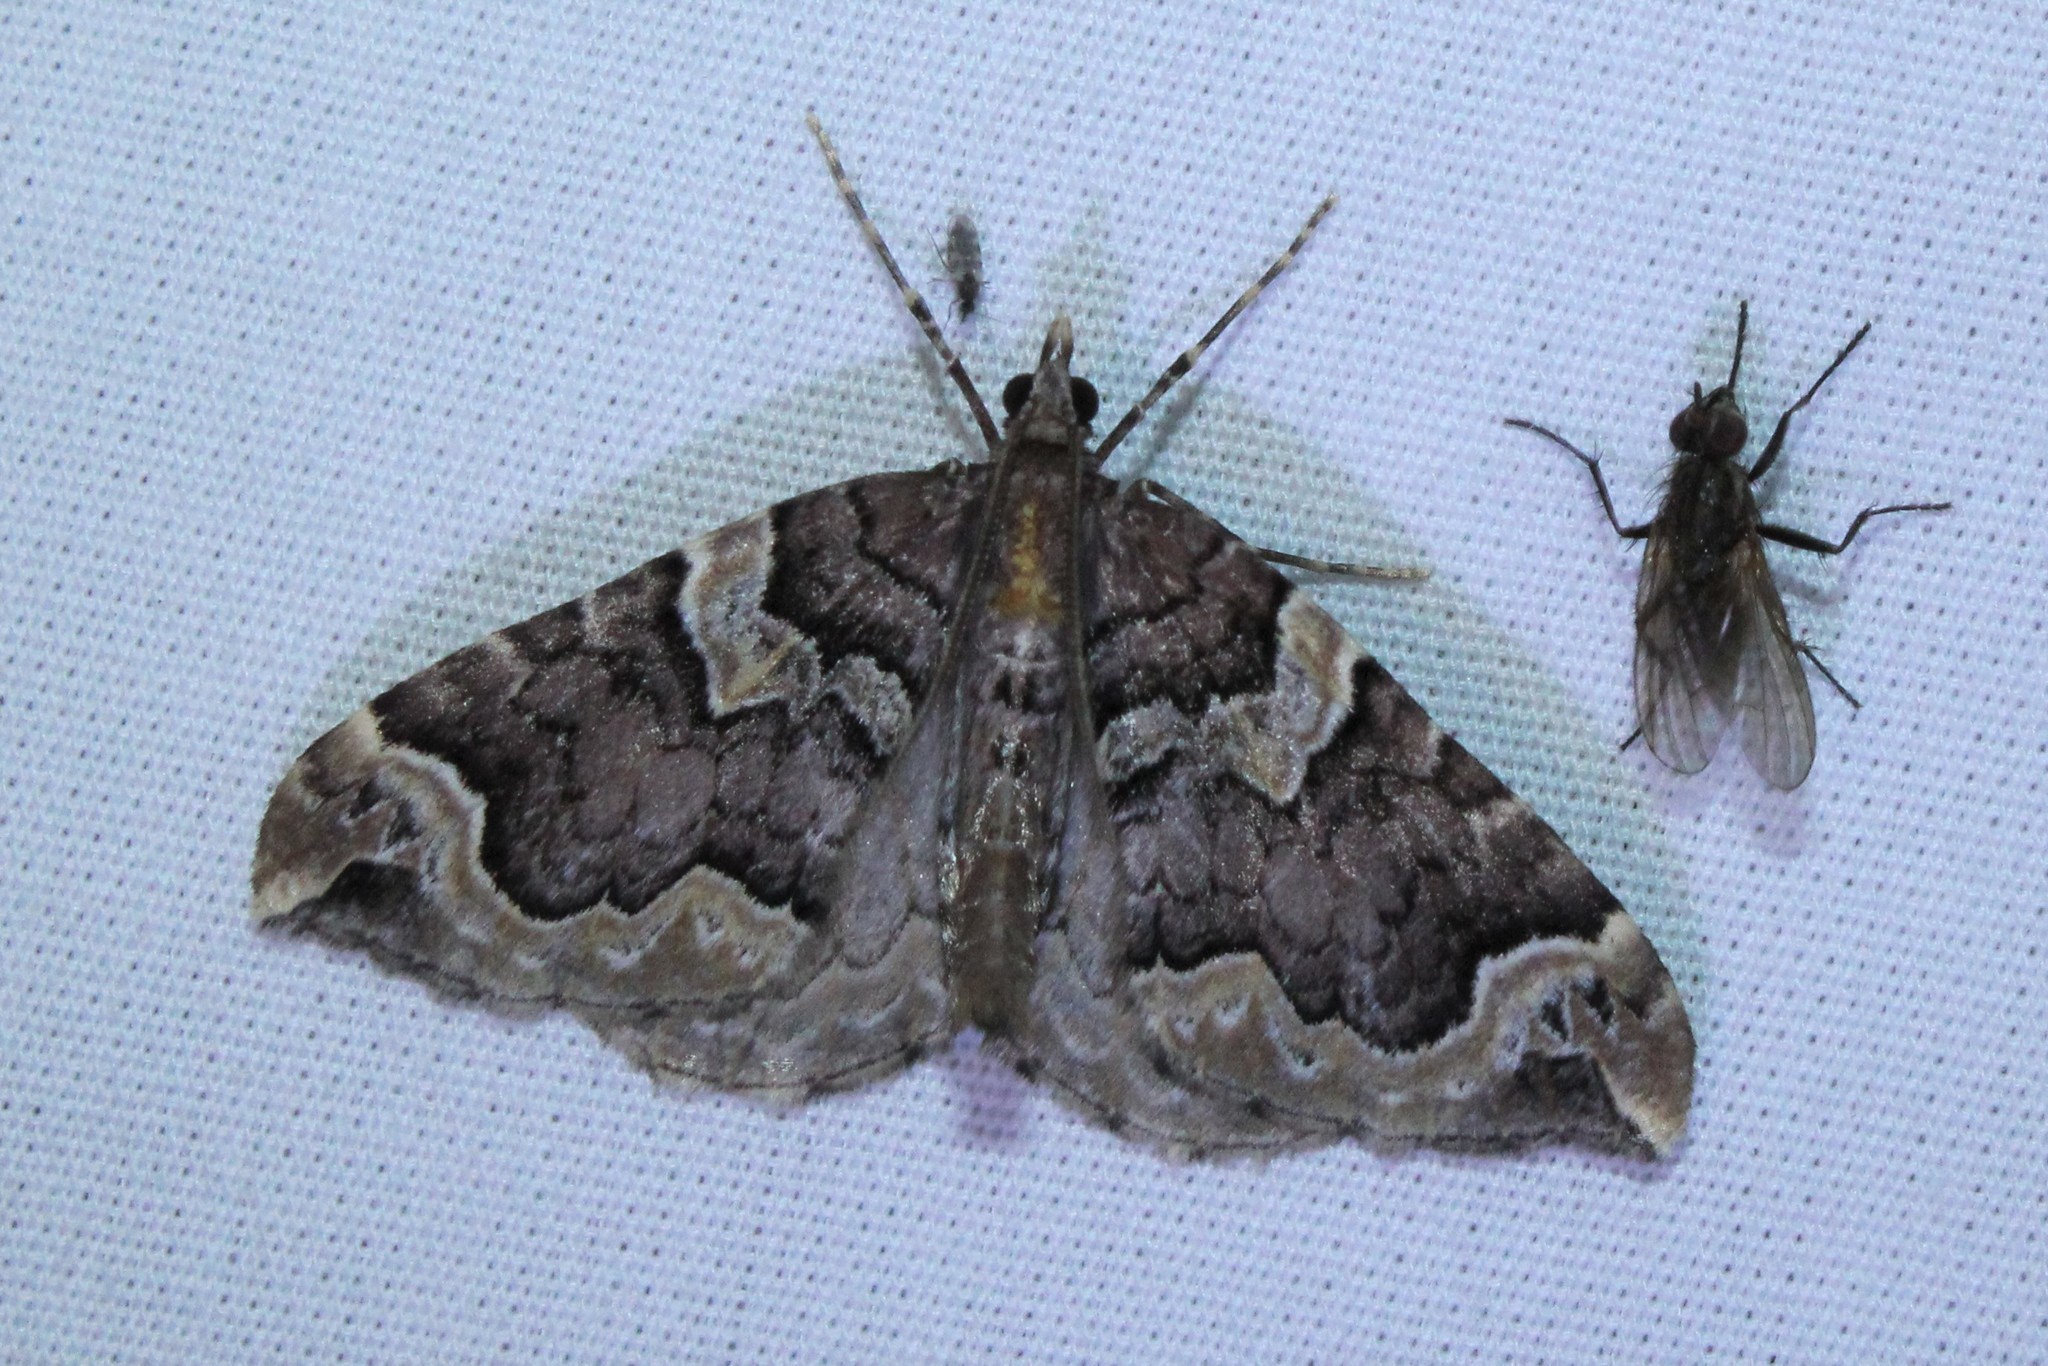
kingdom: Animalia
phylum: Arthropoda
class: Insecta
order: Lepidoptera
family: Geometridae
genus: Eulithis
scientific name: Eulithis serrataria
